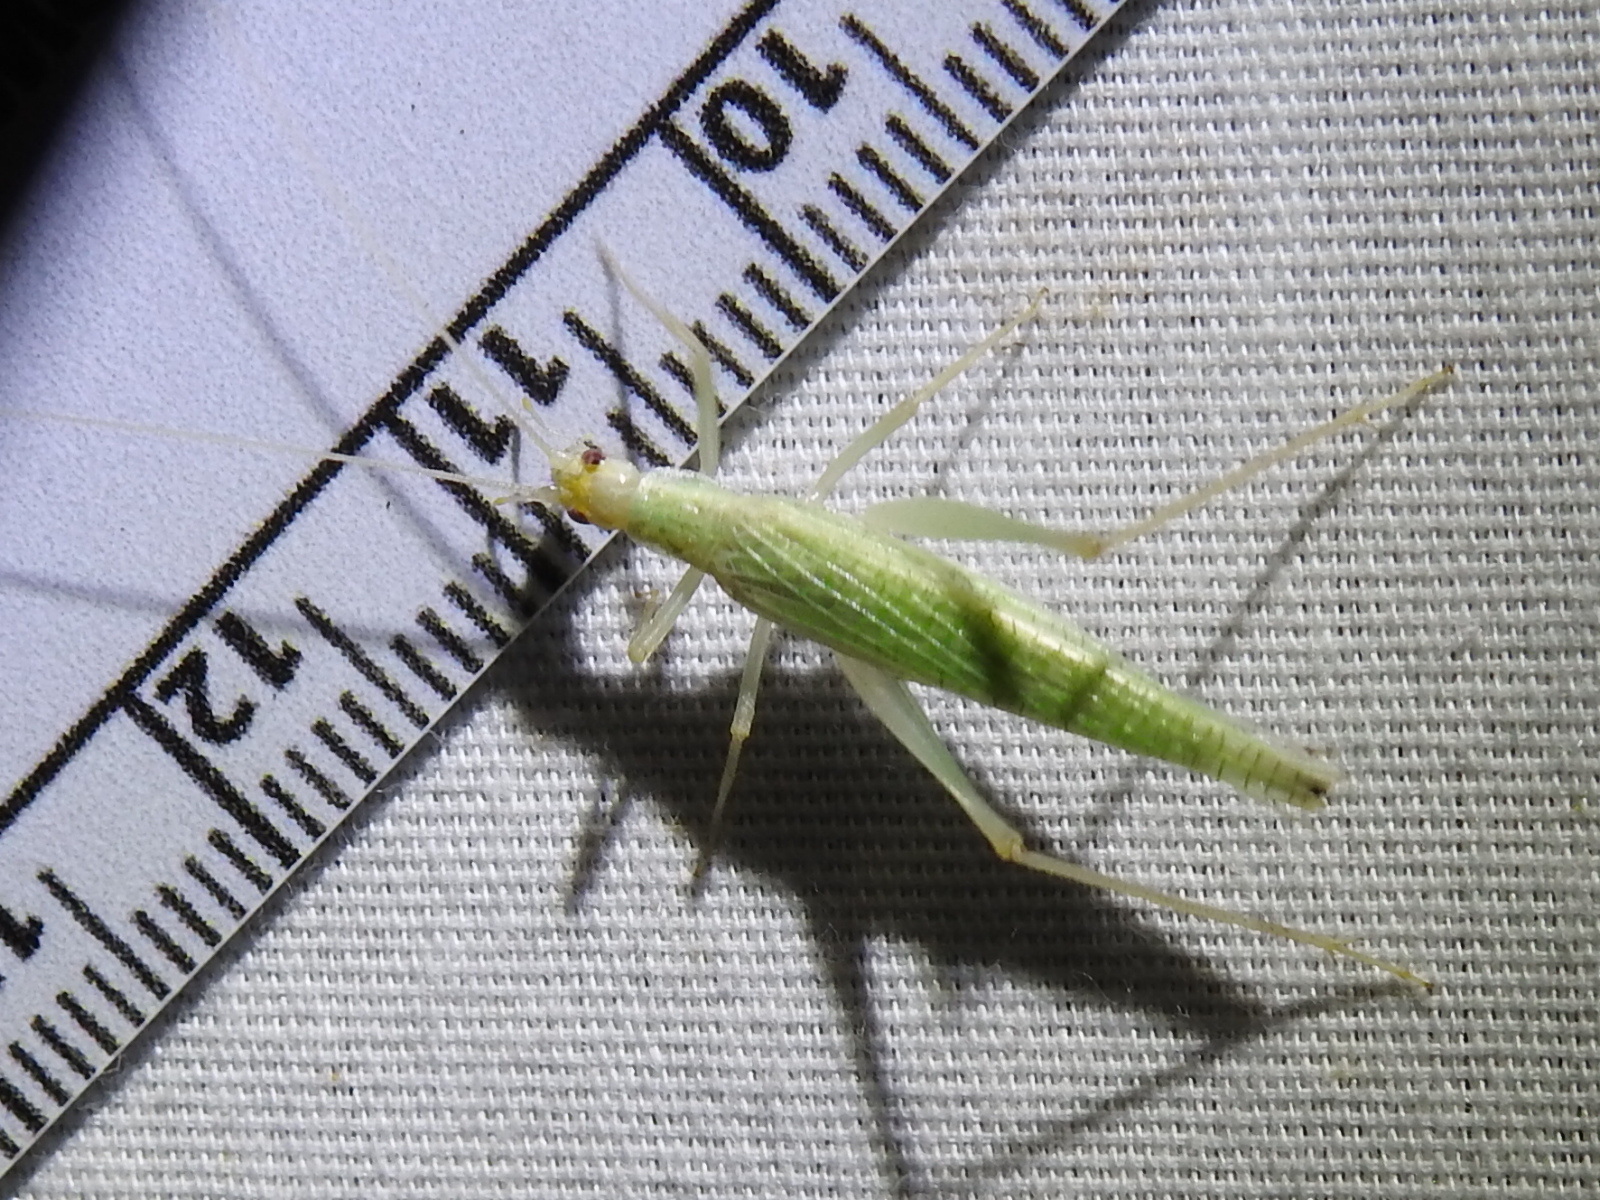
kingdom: Animalia
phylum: Arthropoda
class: Insecta
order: Orthoptera
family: Gryllidae
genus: Oecanthus
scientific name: Oecanthus exclamationis
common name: Davis's tree cricket
